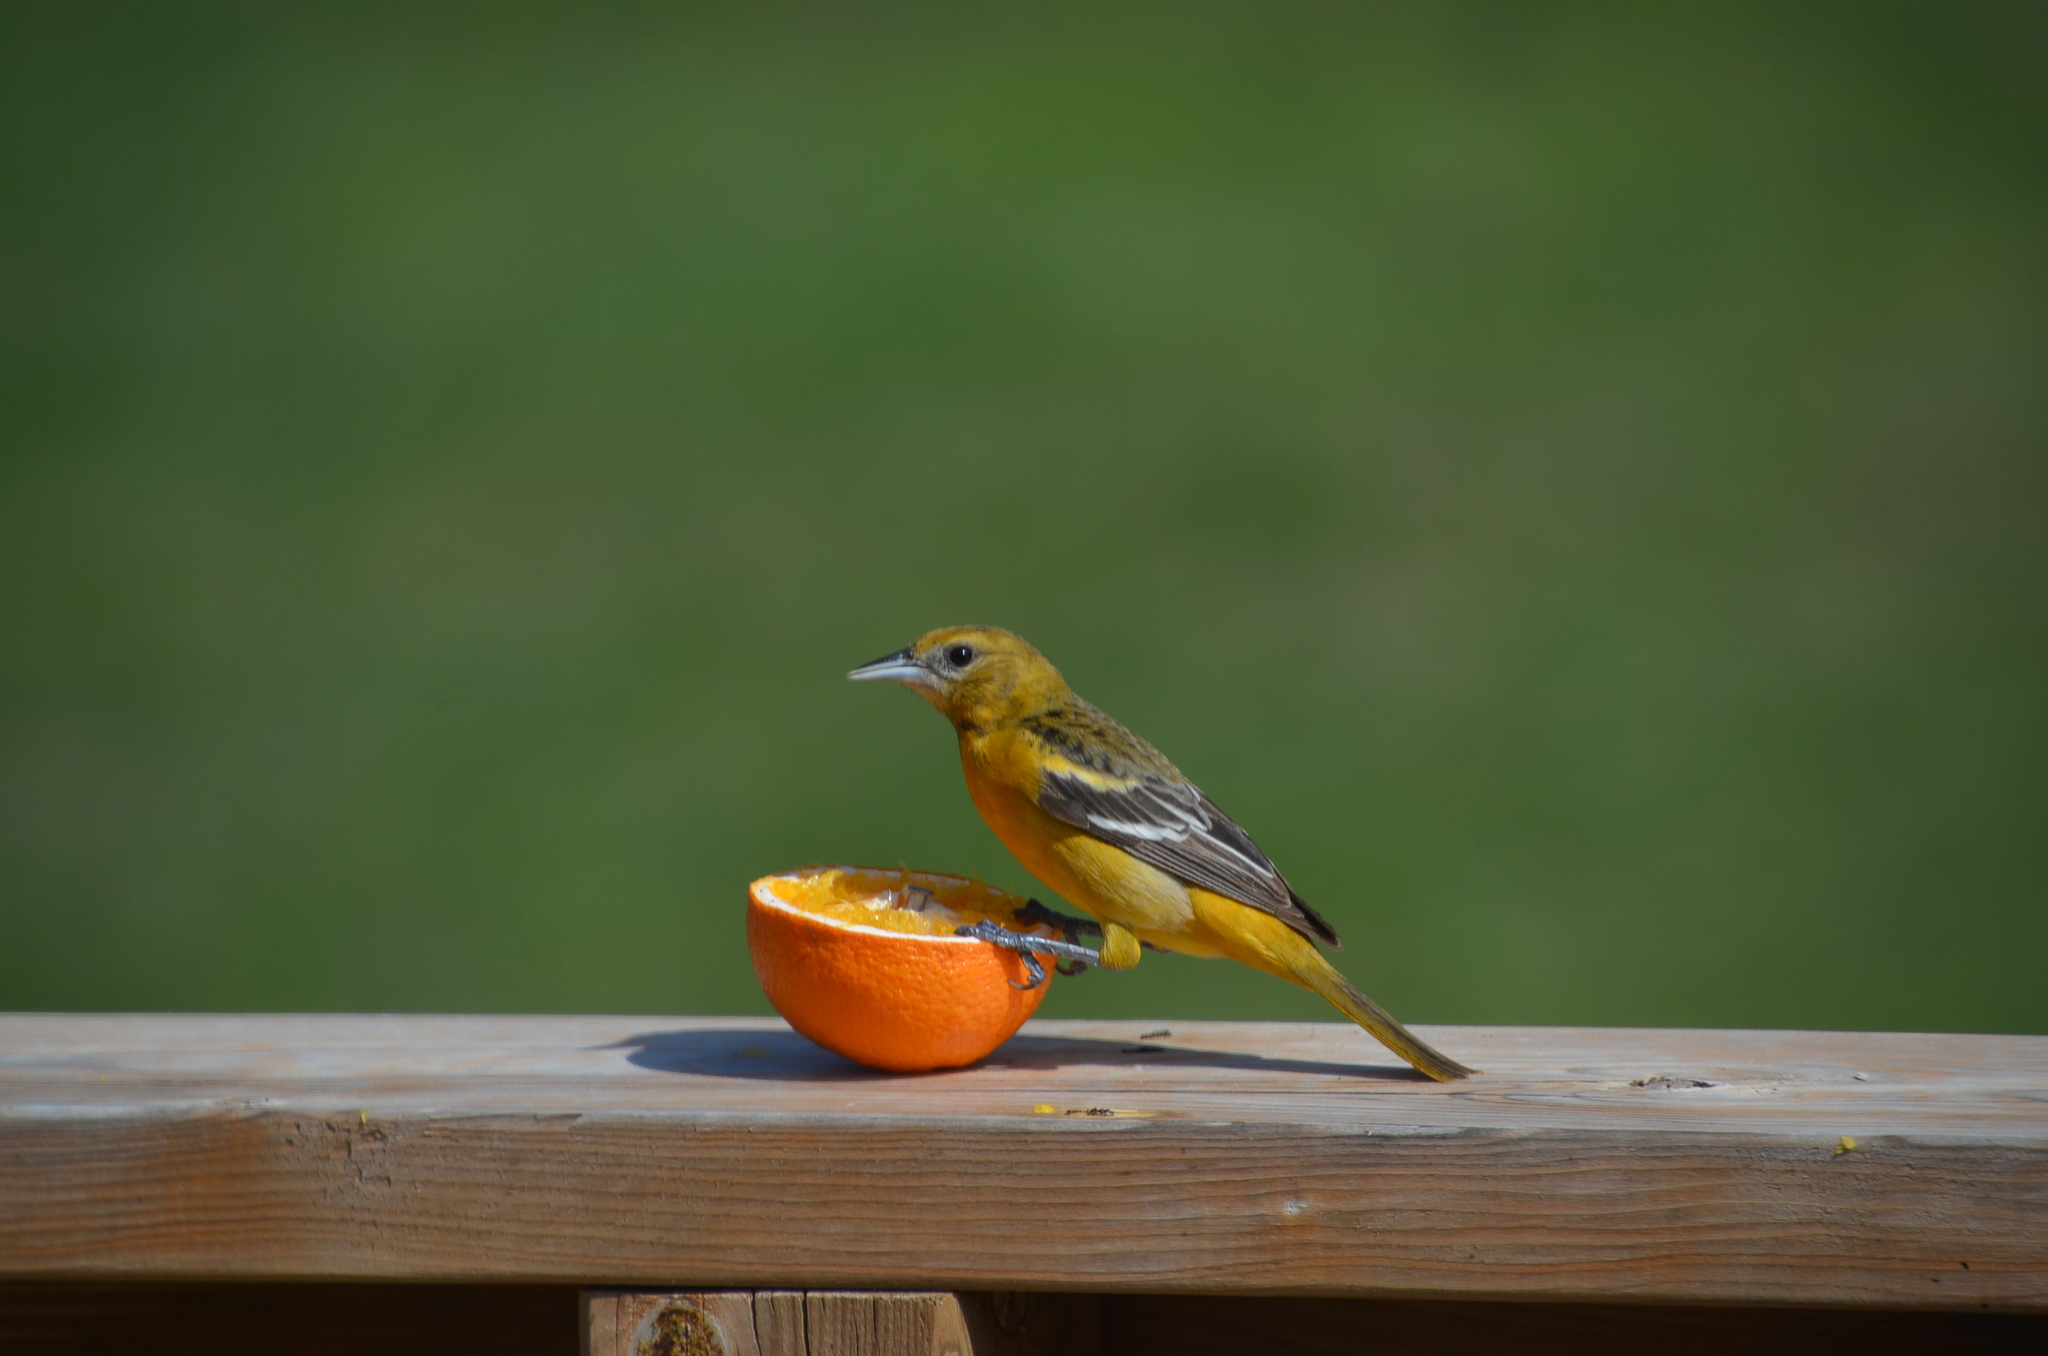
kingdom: Animalia
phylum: Chordata
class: Aves
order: Passeriformes
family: Icteridae
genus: Icterus
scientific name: Icterus galbula
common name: Baltimore oriole
